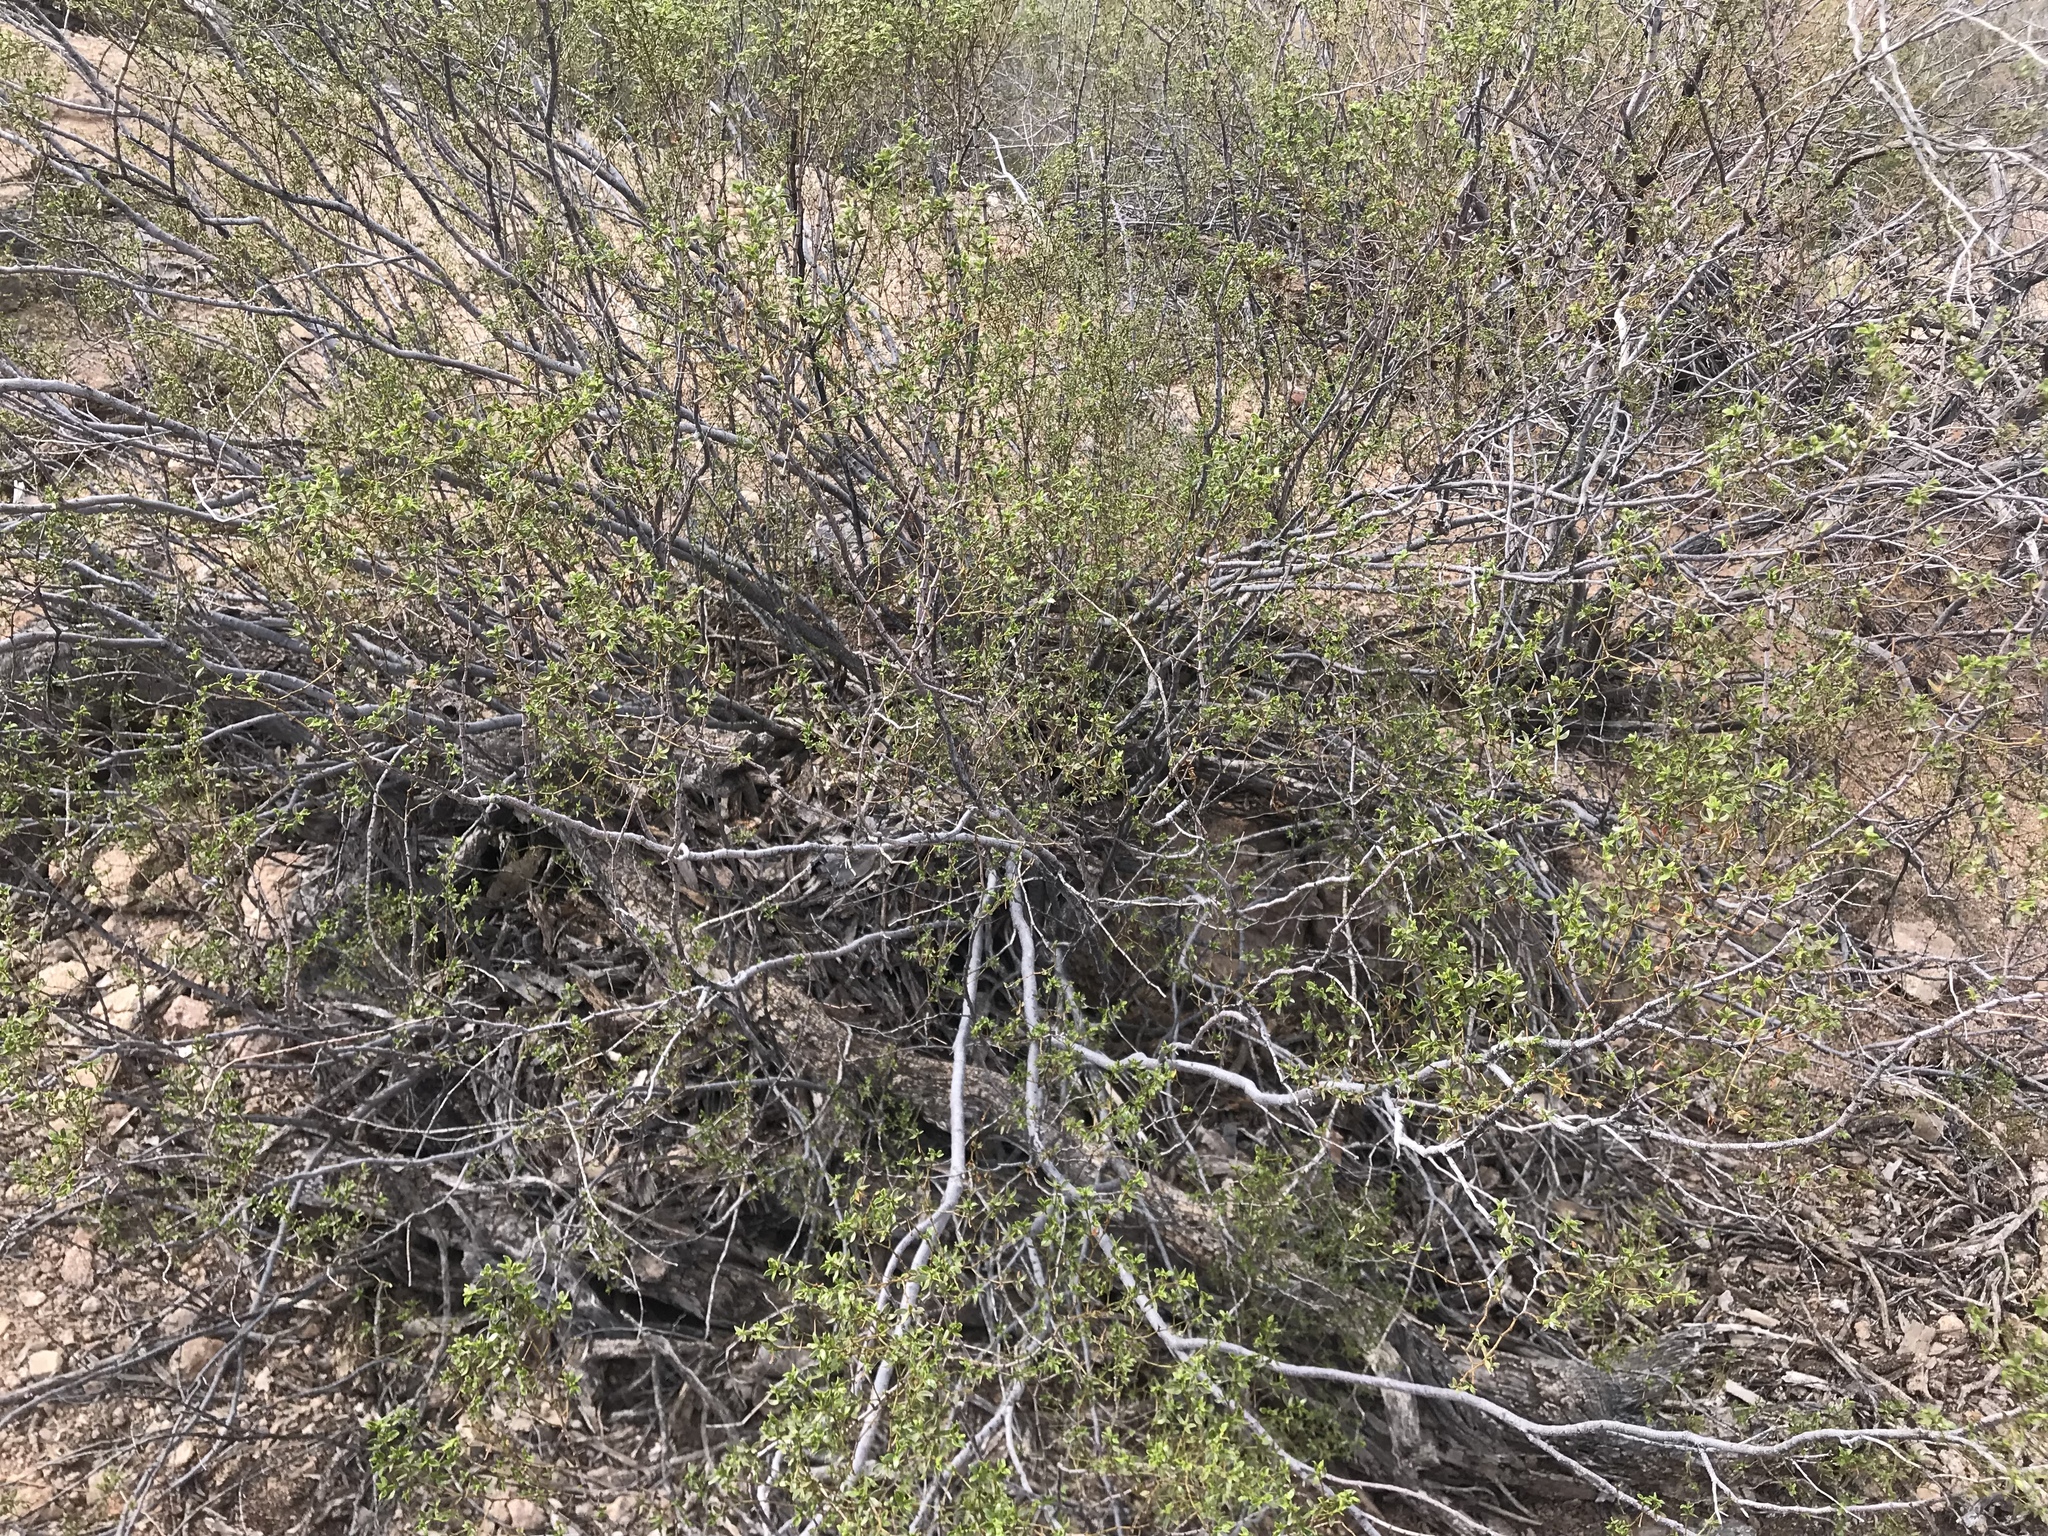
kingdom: Plantae
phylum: Tracheophyta
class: Magnoliopsida
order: Zygophyllales
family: Zygophyllaceae
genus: Larrea
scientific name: Larrea tridentata
